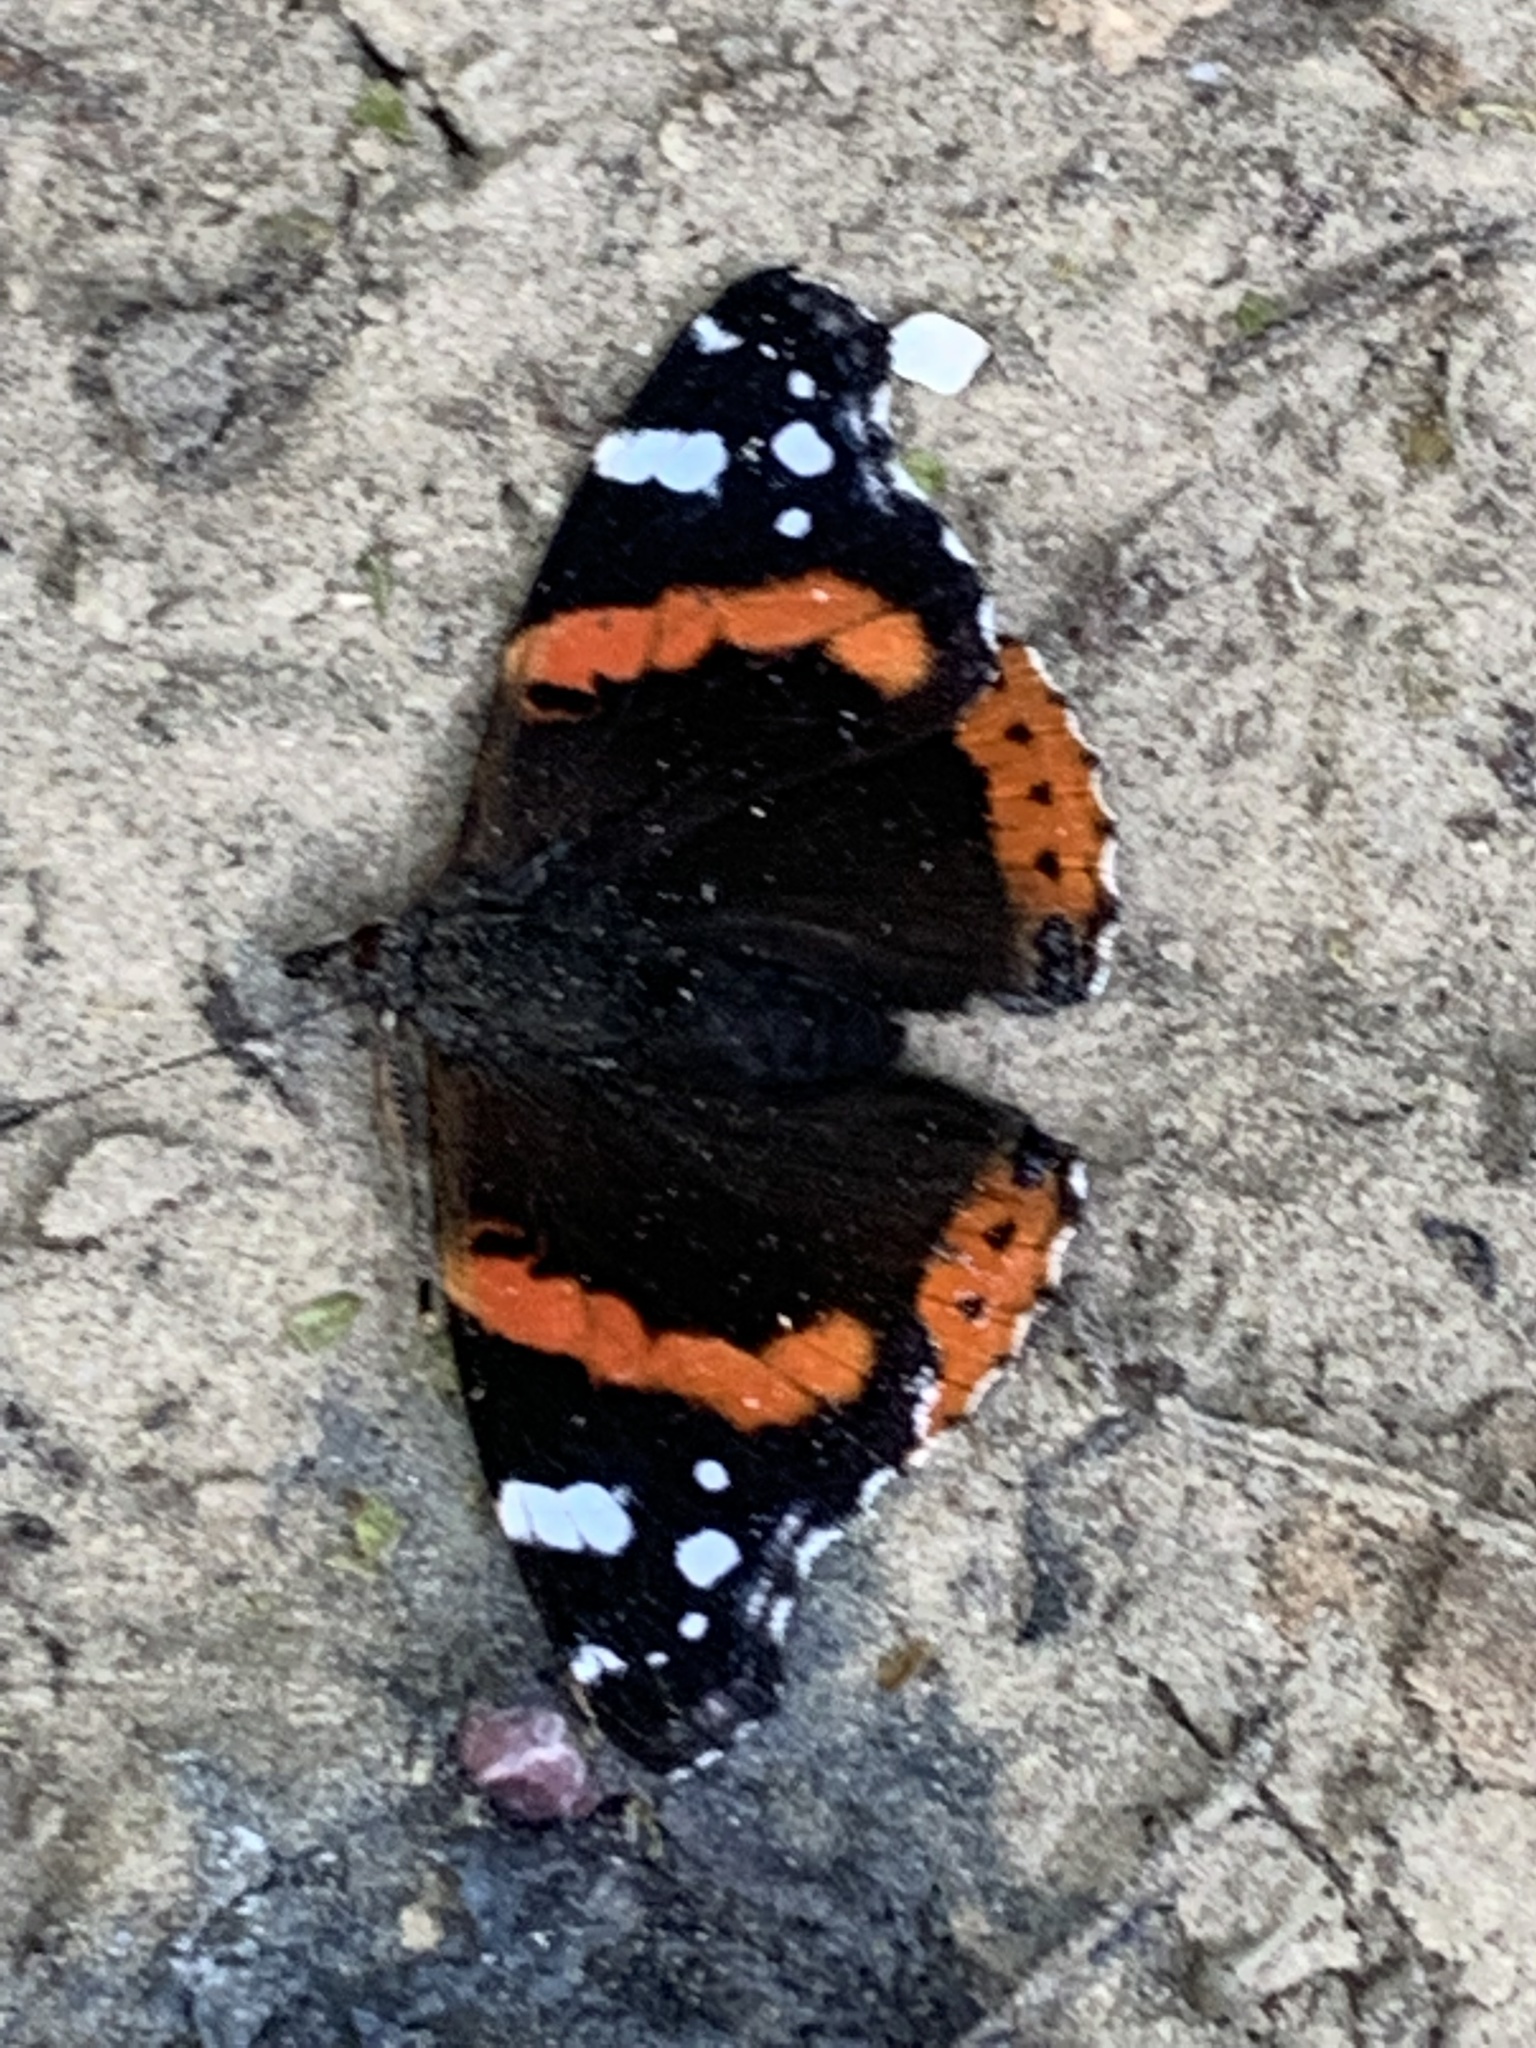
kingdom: Animalia
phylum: Arthropoda
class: Insecta
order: Lepidoptera
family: Nymphalidae
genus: Vanessa
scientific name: Vanessa atalanta
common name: Red admiral
